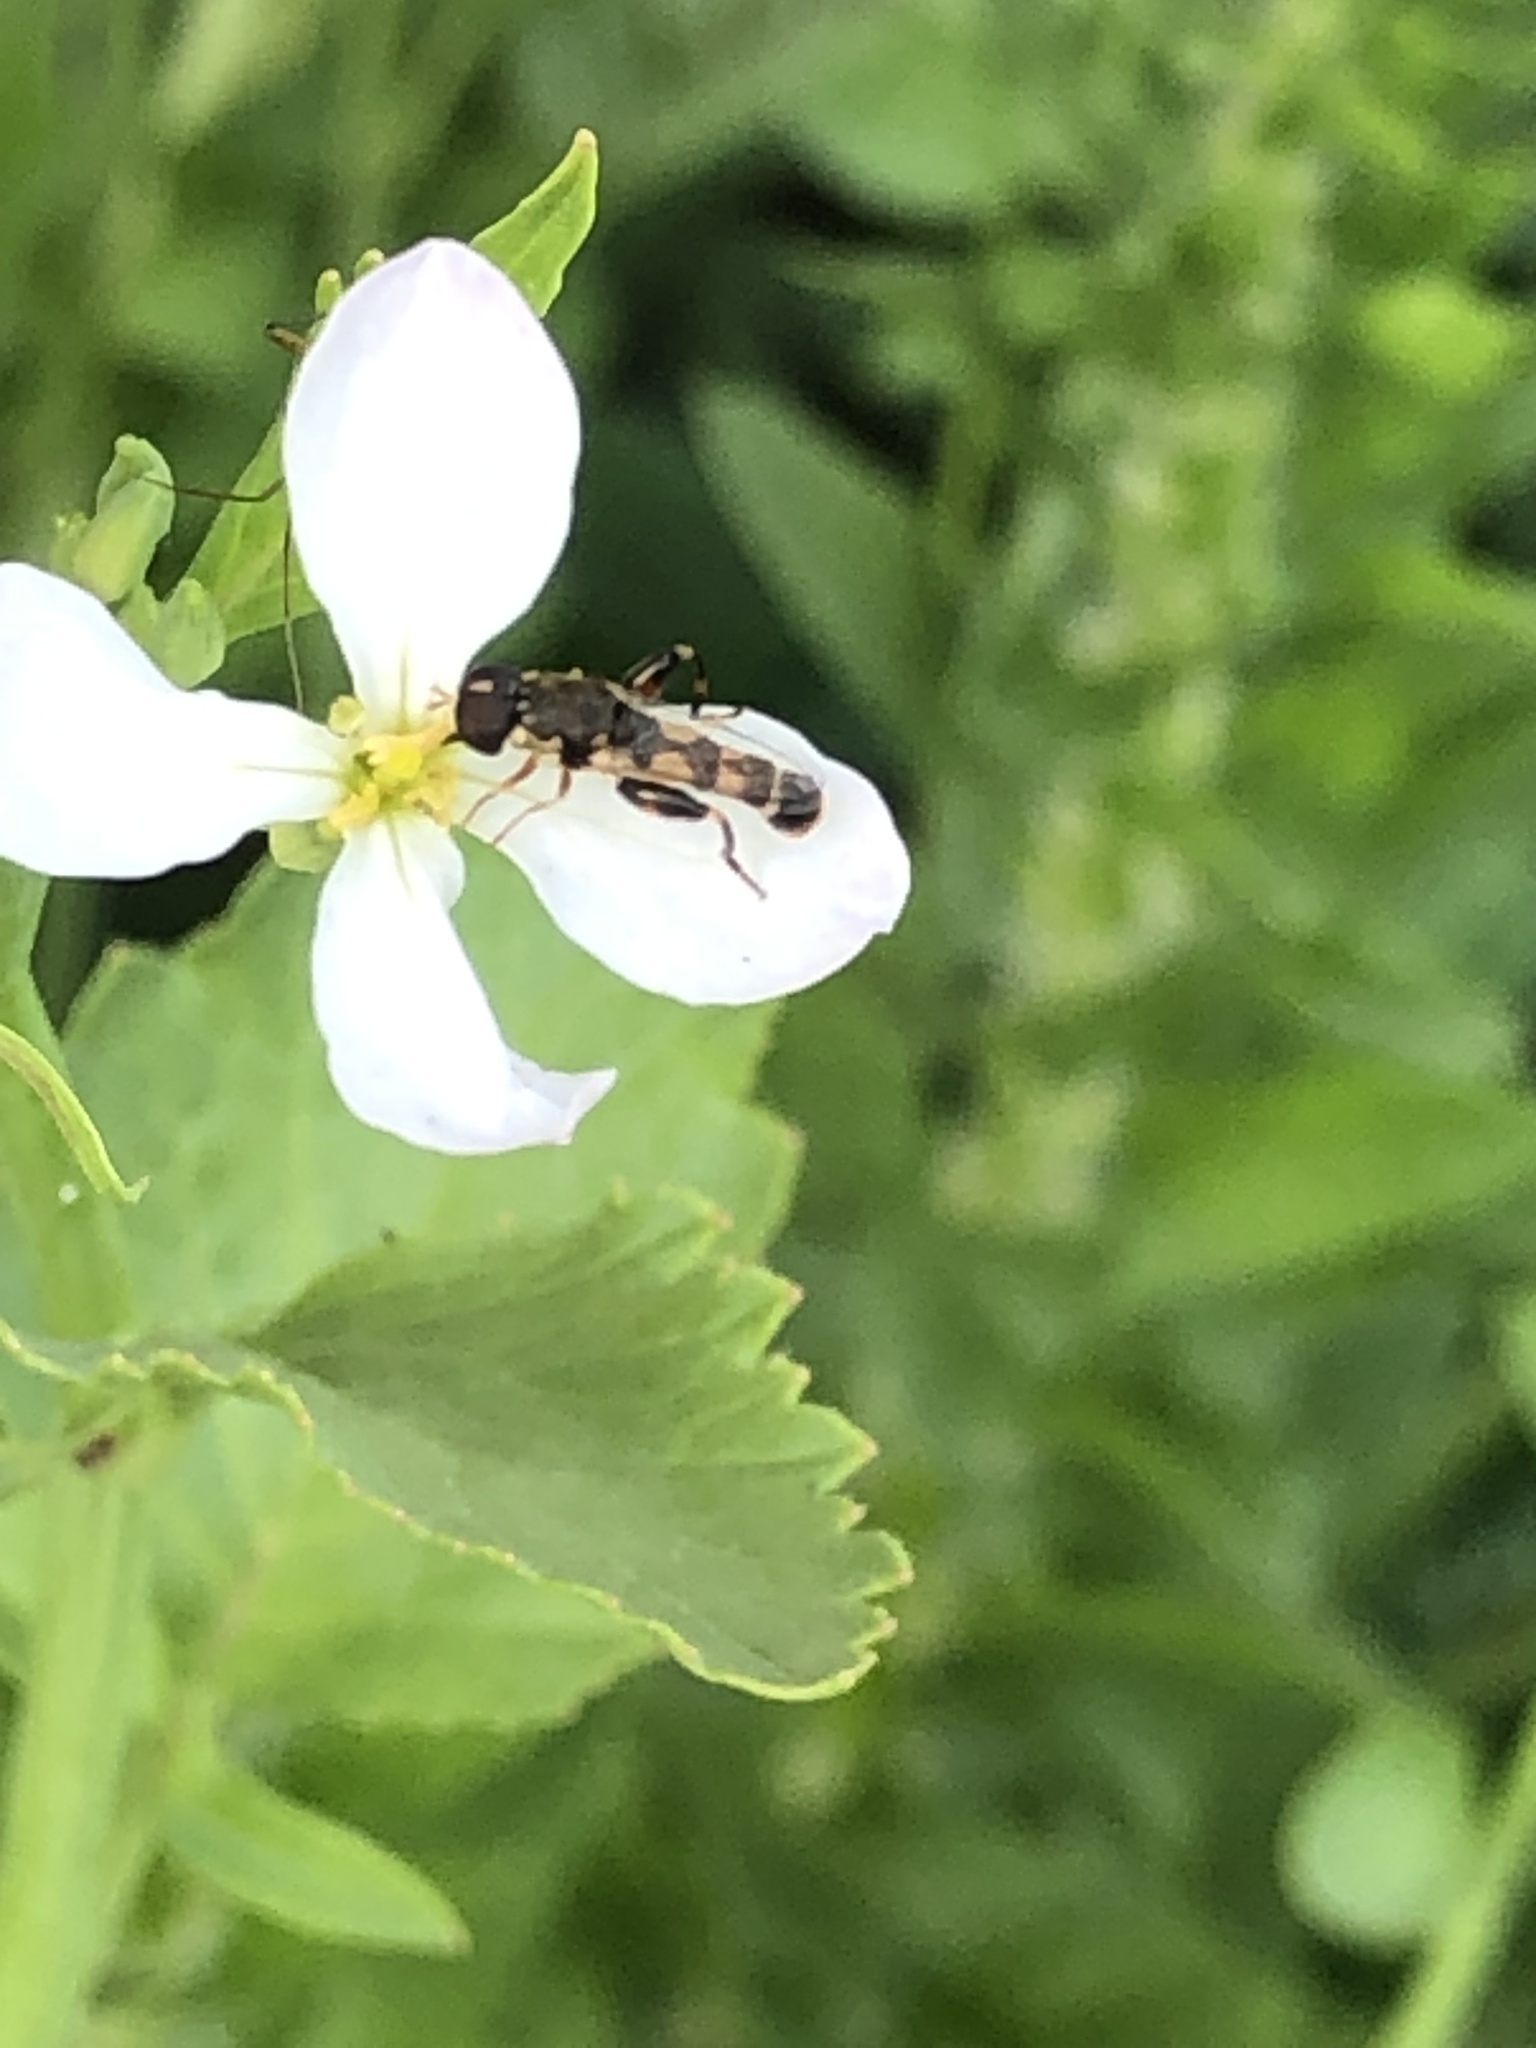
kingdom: Animalia
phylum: Arthropoda
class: Insecta
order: Diptera
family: Syrphidae
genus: Syritta
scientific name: Syritta pipiens
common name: Hover fly
